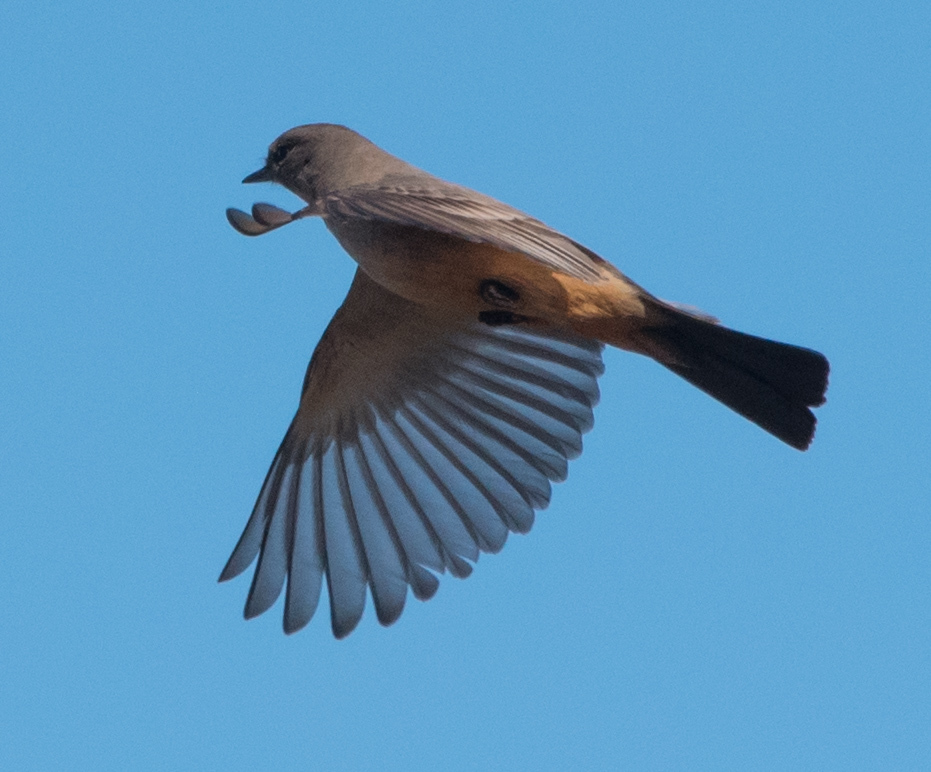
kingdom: Animalia
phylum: Chordata
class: Aves
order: Passeriformes
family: Tyrannidae
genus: Sayornis
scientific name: Sayornis saya
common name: Say's phoebe
